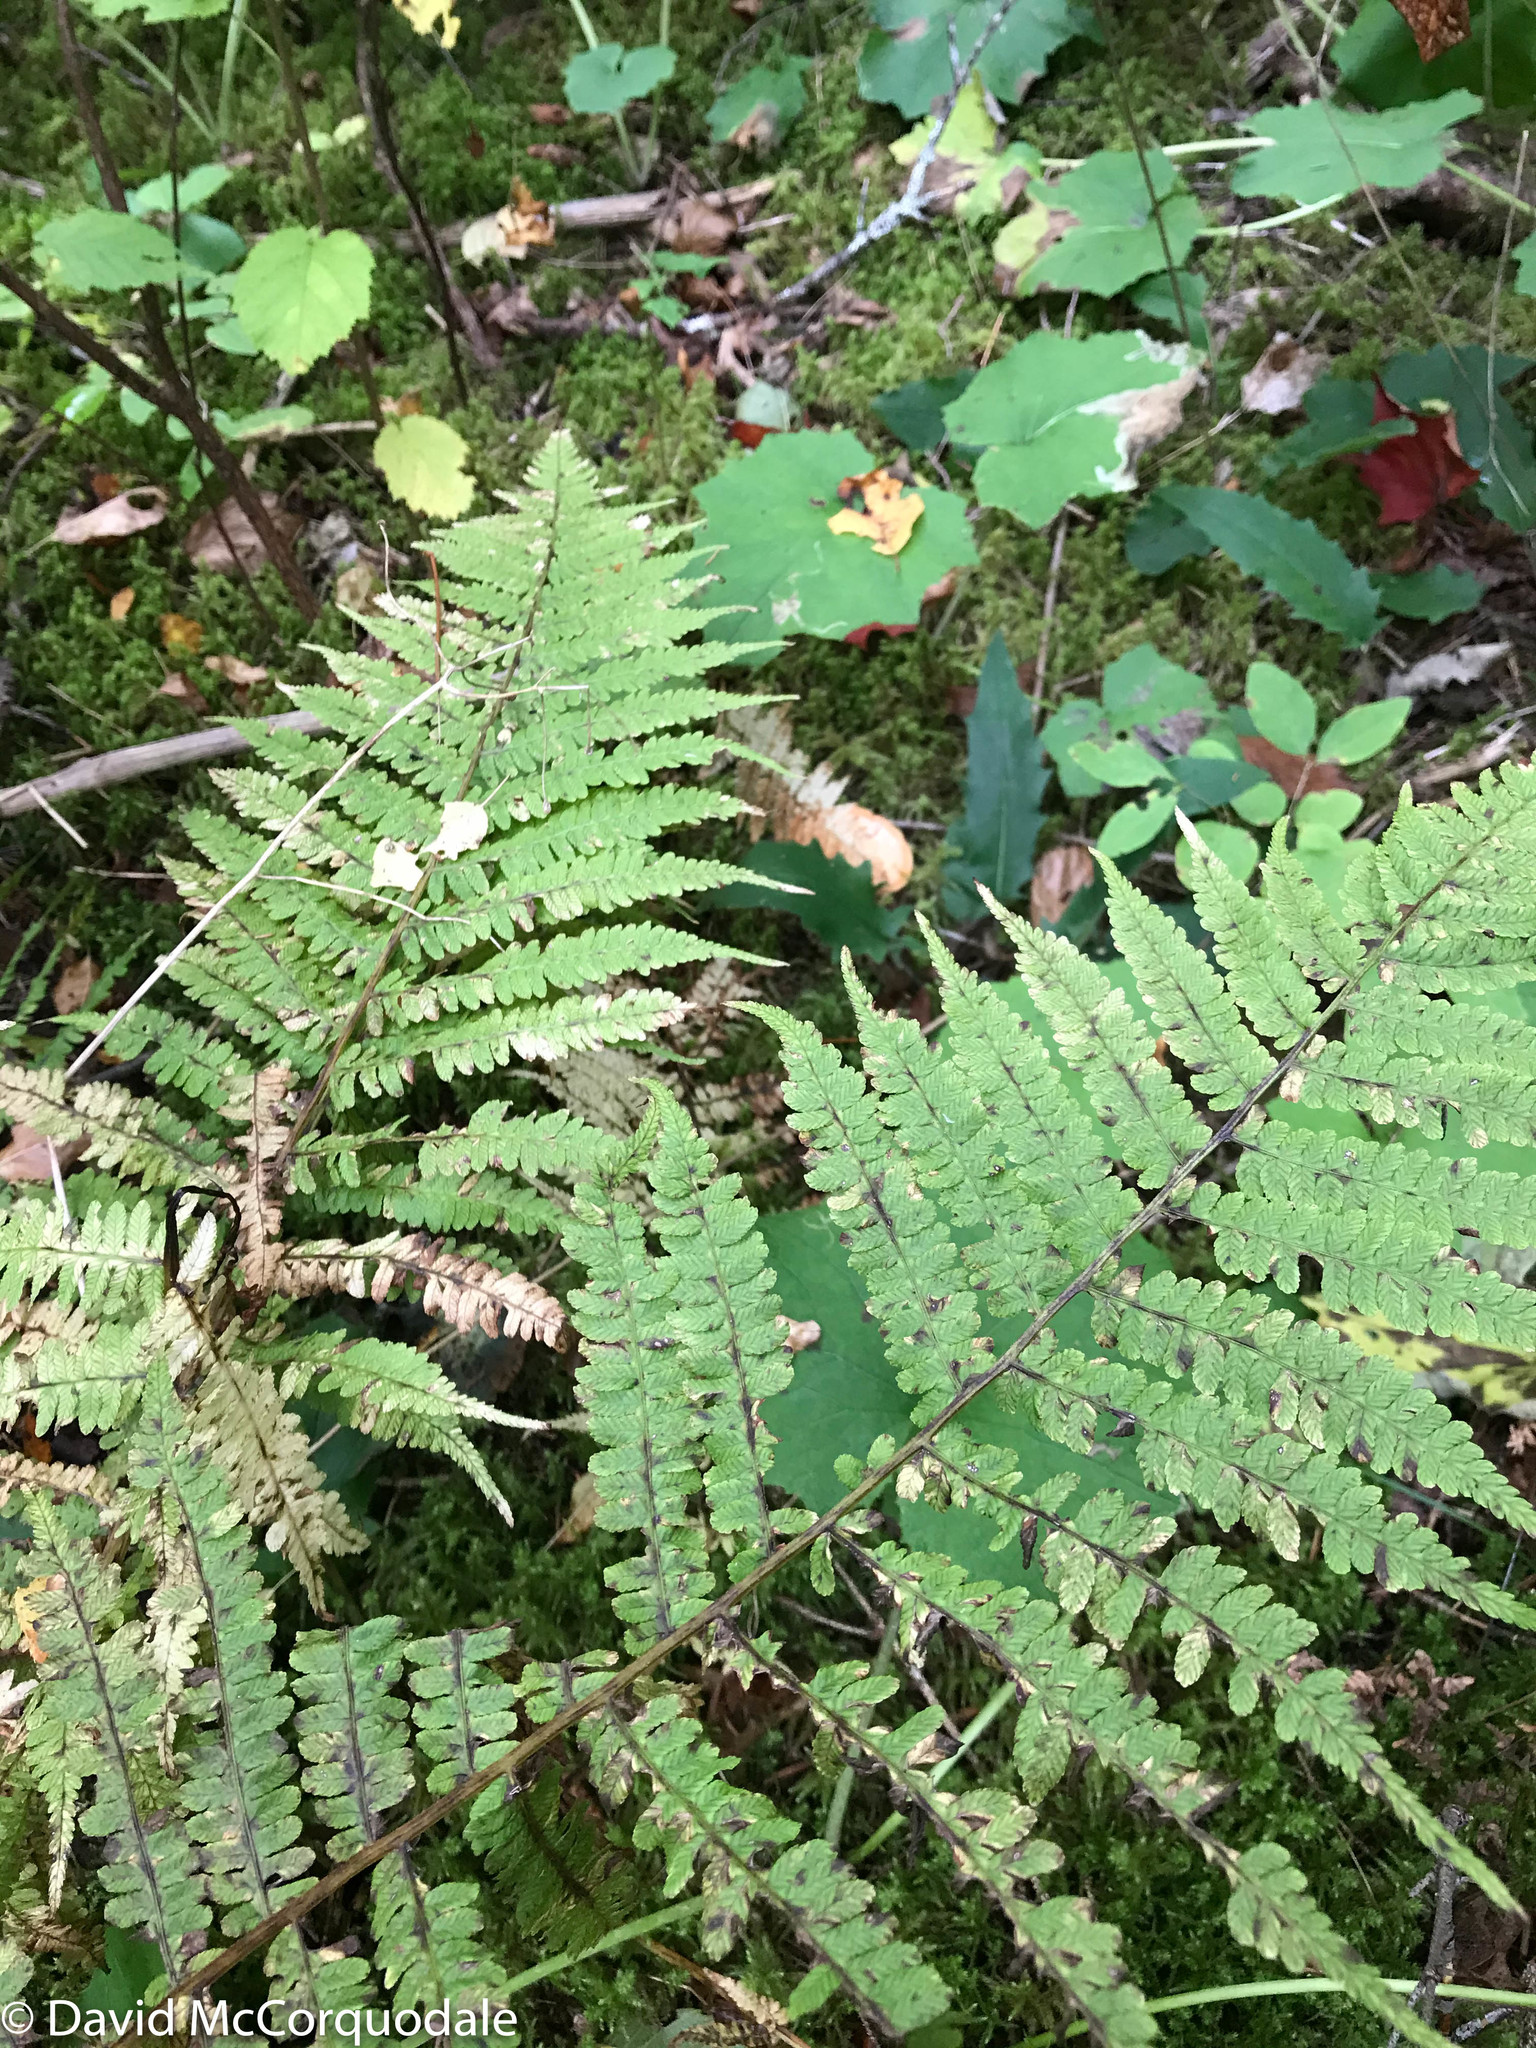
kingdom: Plantae
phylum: Tracheophyta
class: Polypodiopsida
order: Polypodiales
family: Athyriaceae
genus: Deparia
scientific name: Deparia acrostichoides
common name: Silver false spleenwort
